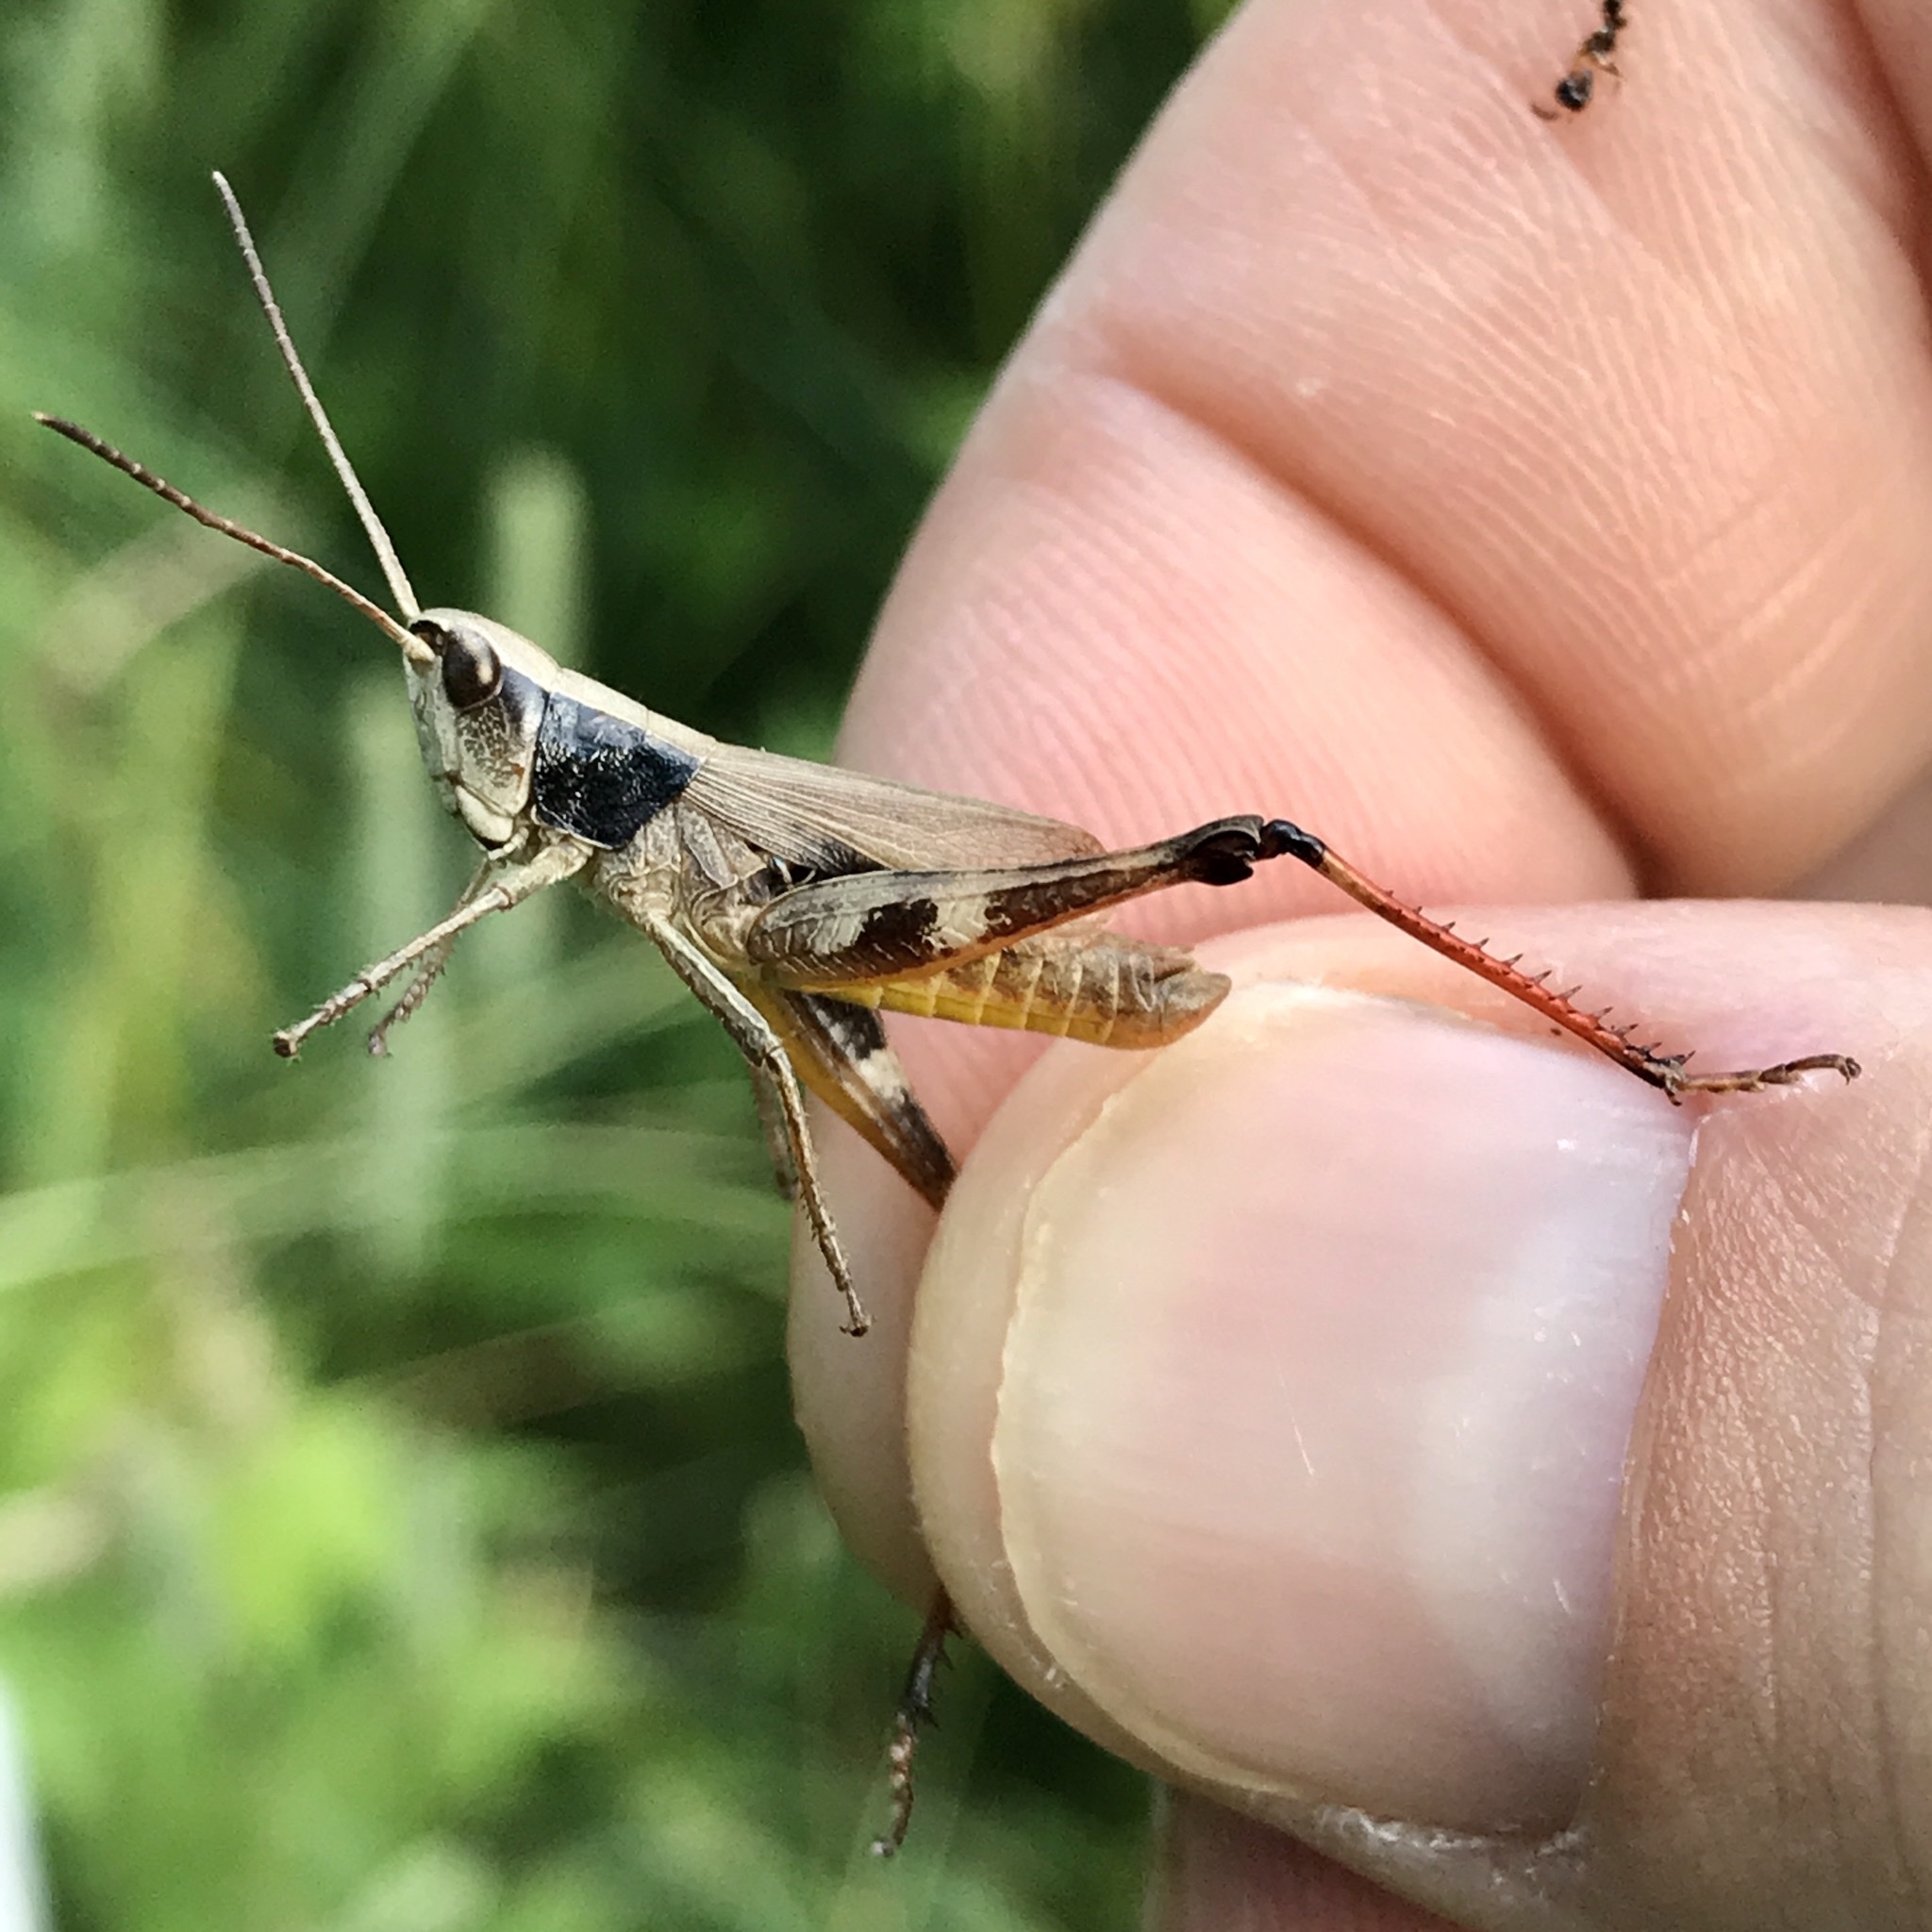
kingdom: Animalia
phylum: Arthropoda
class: Insecta
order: Orthoptera
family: Acrididae
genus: Chloealtis
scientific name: Chloealtis conspersa
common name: Sprinkled broad-winged grasshopper
